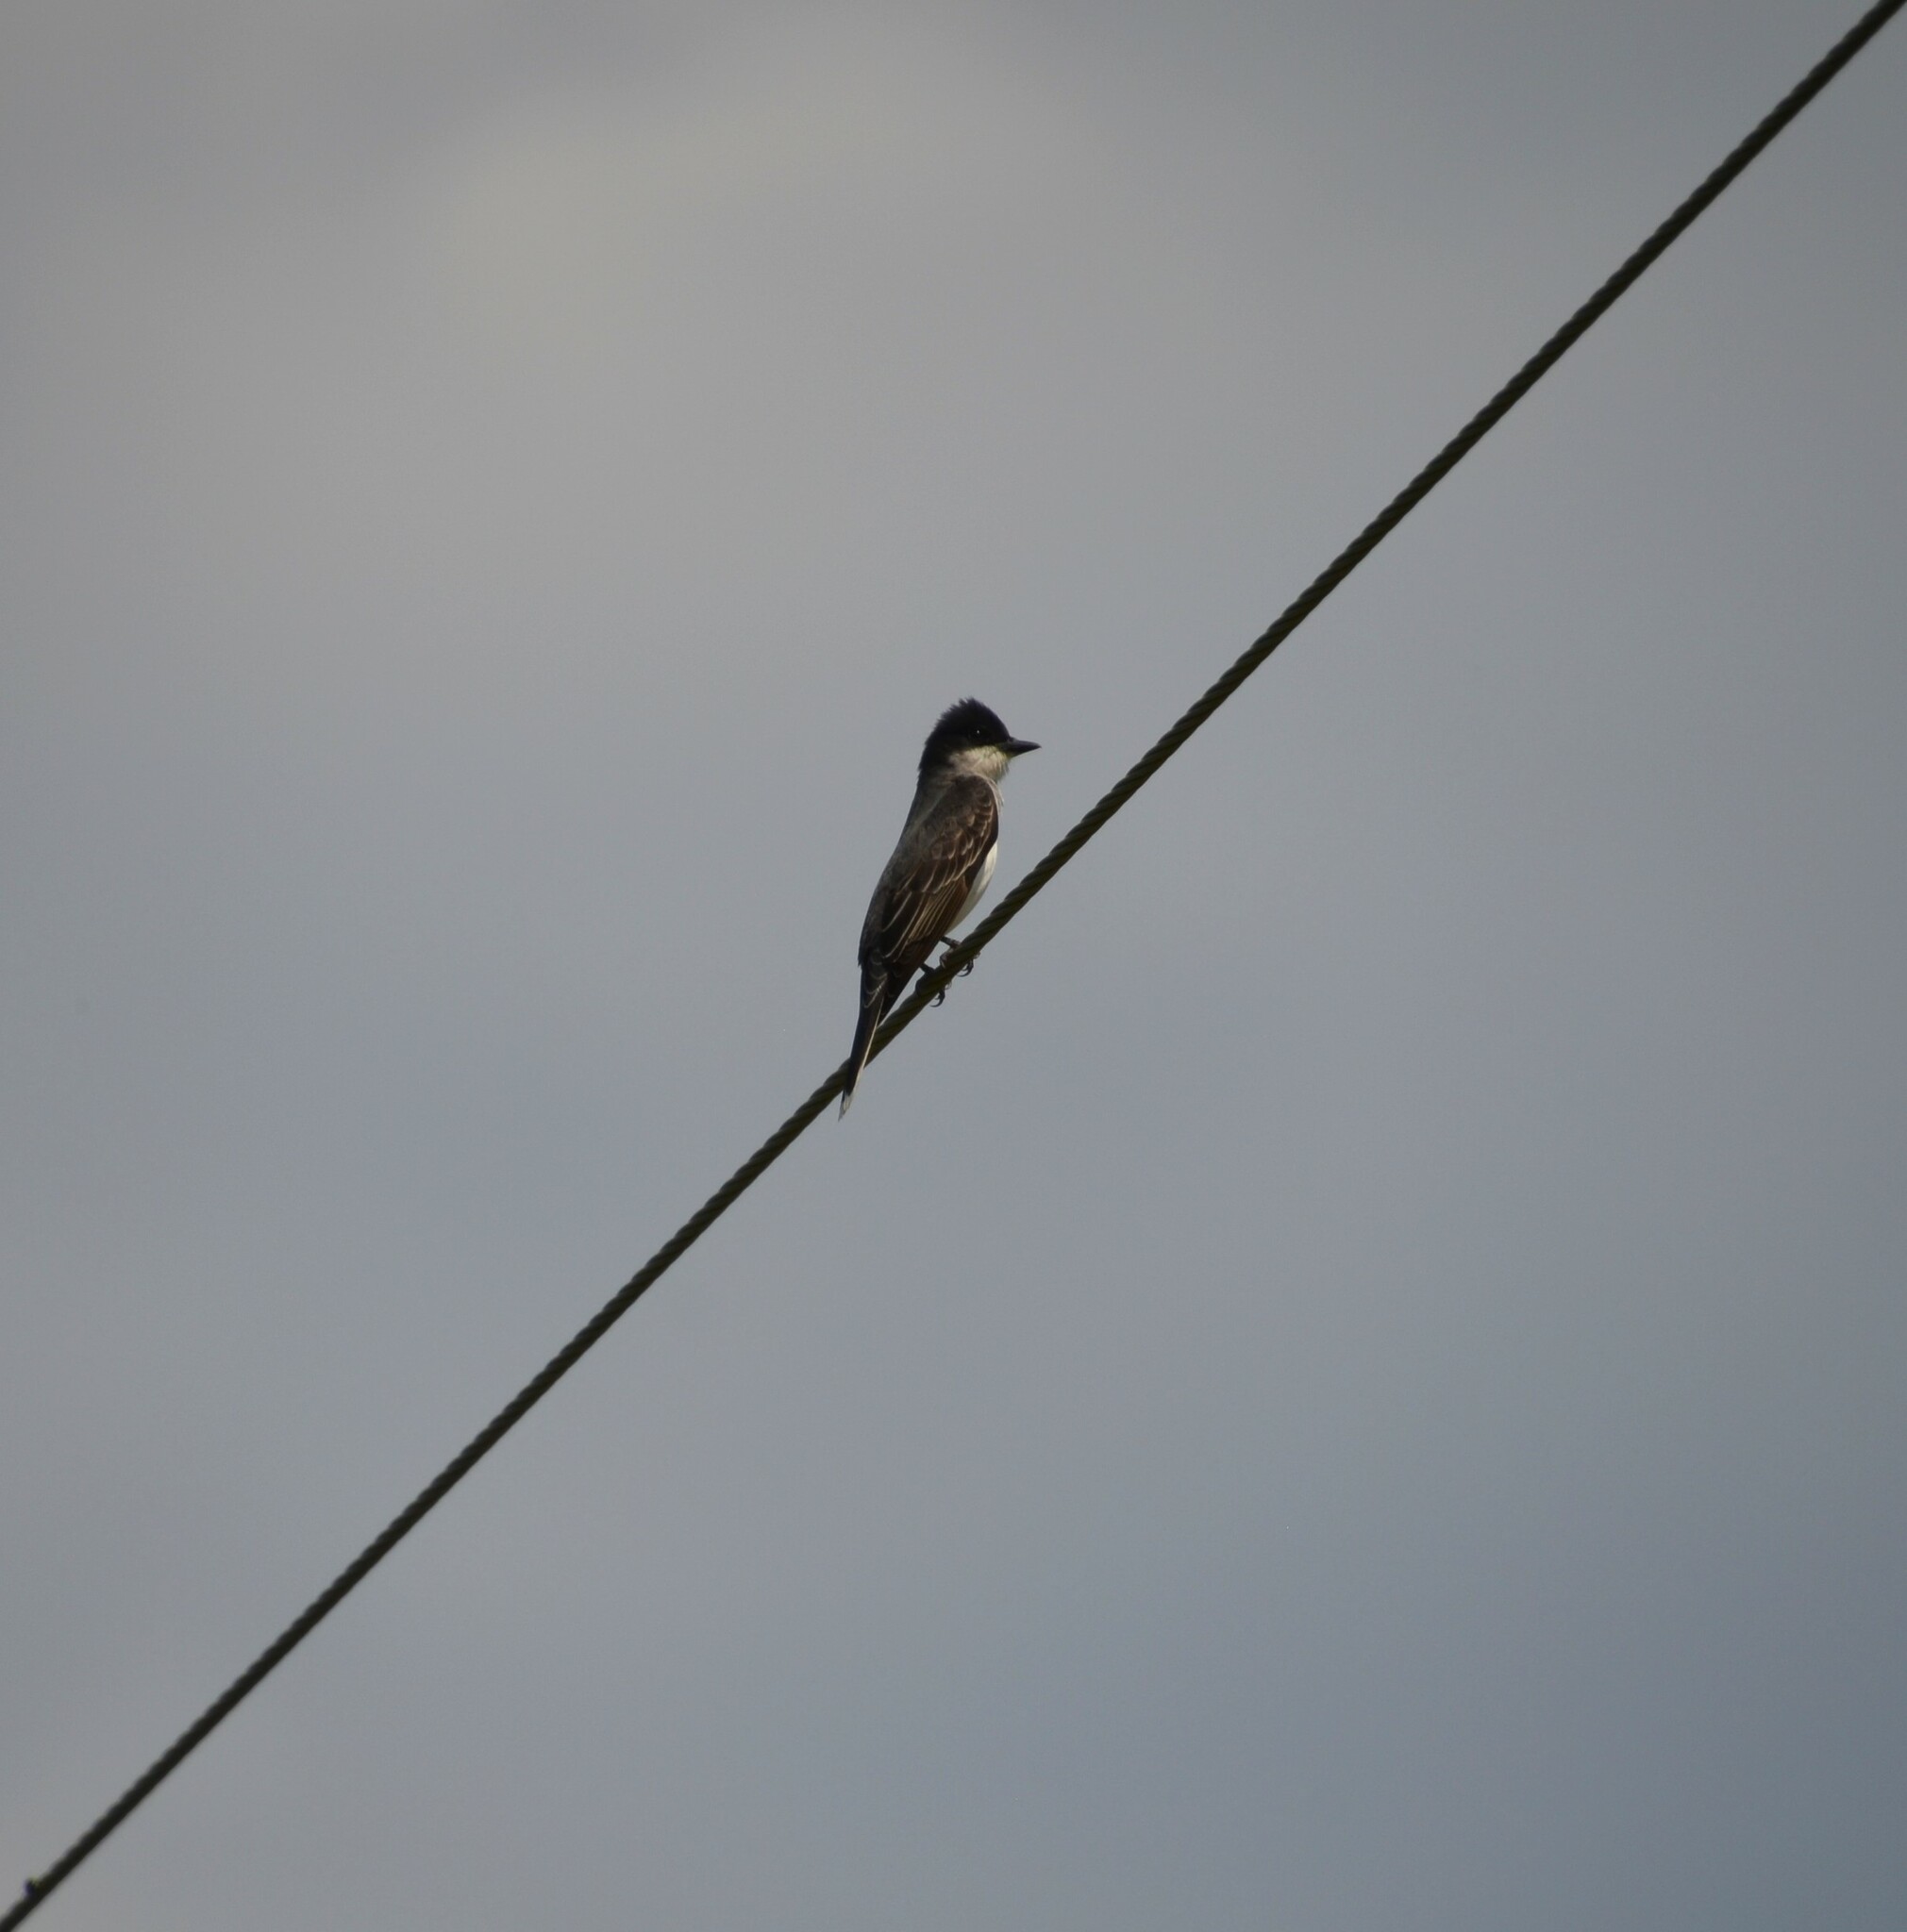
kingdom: Animalia
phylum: Chordata
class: Aves
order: Passeriformes
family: Tyrannidae
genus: Tyrannus
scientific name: Tyrannus tyrannus
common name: Eastern kingbird
